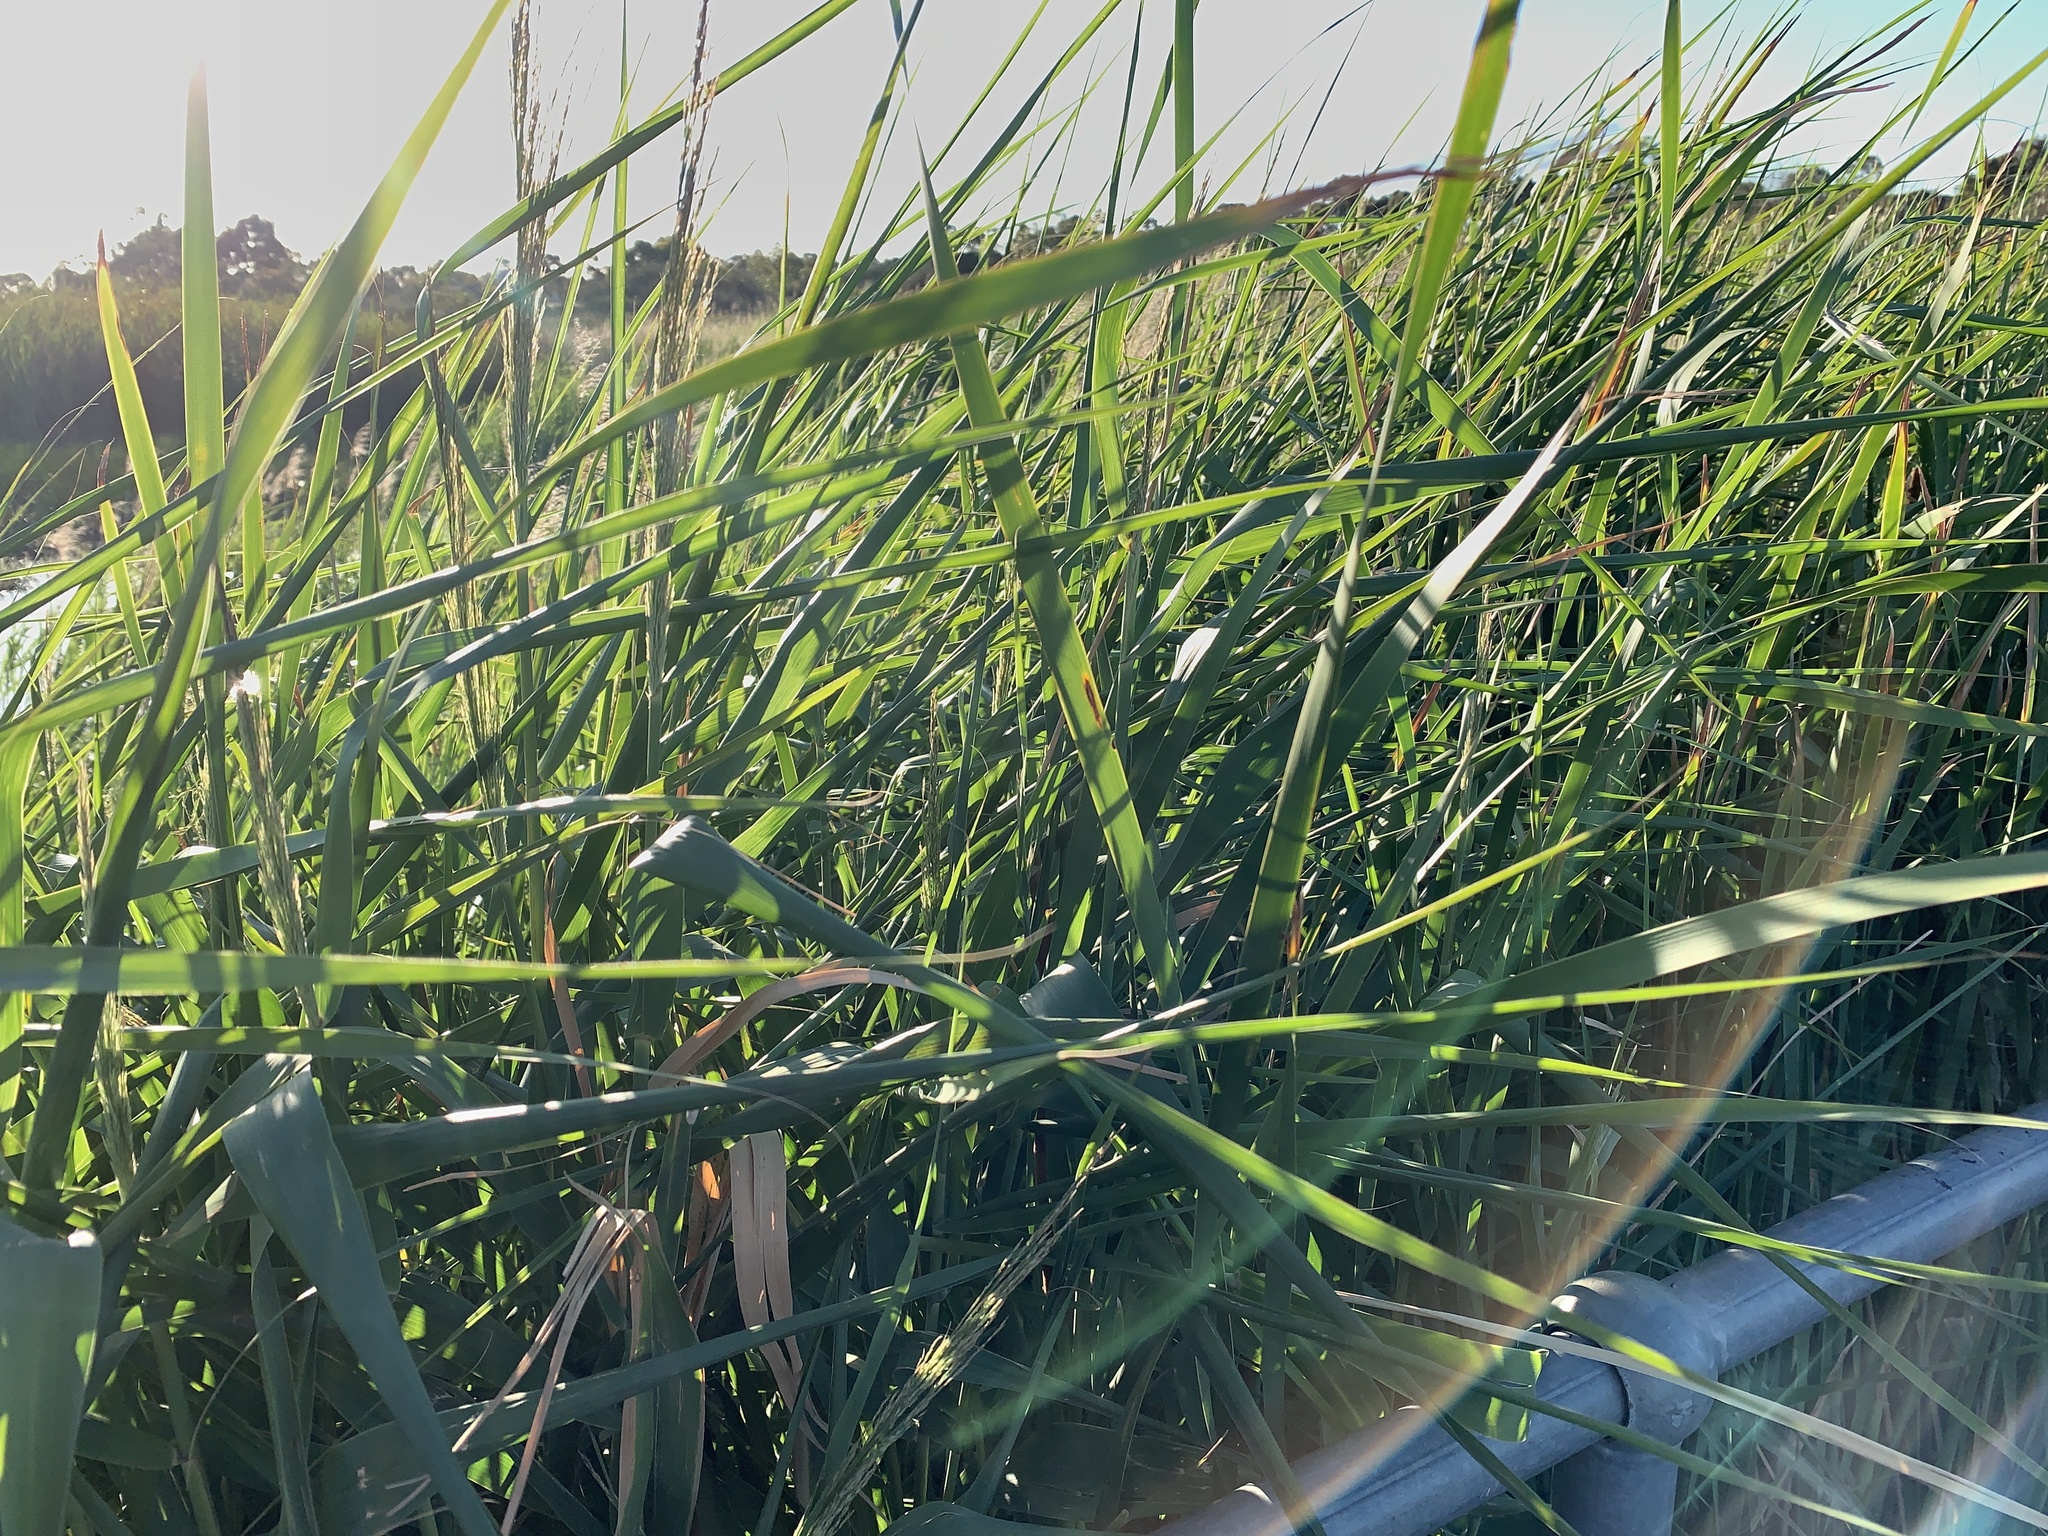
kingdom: Plantae
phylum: Tracheophyta
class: Liliopsida
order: Poales
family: Poaceae
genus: Phragmites
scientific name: Phragmites australis
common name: Common reed
